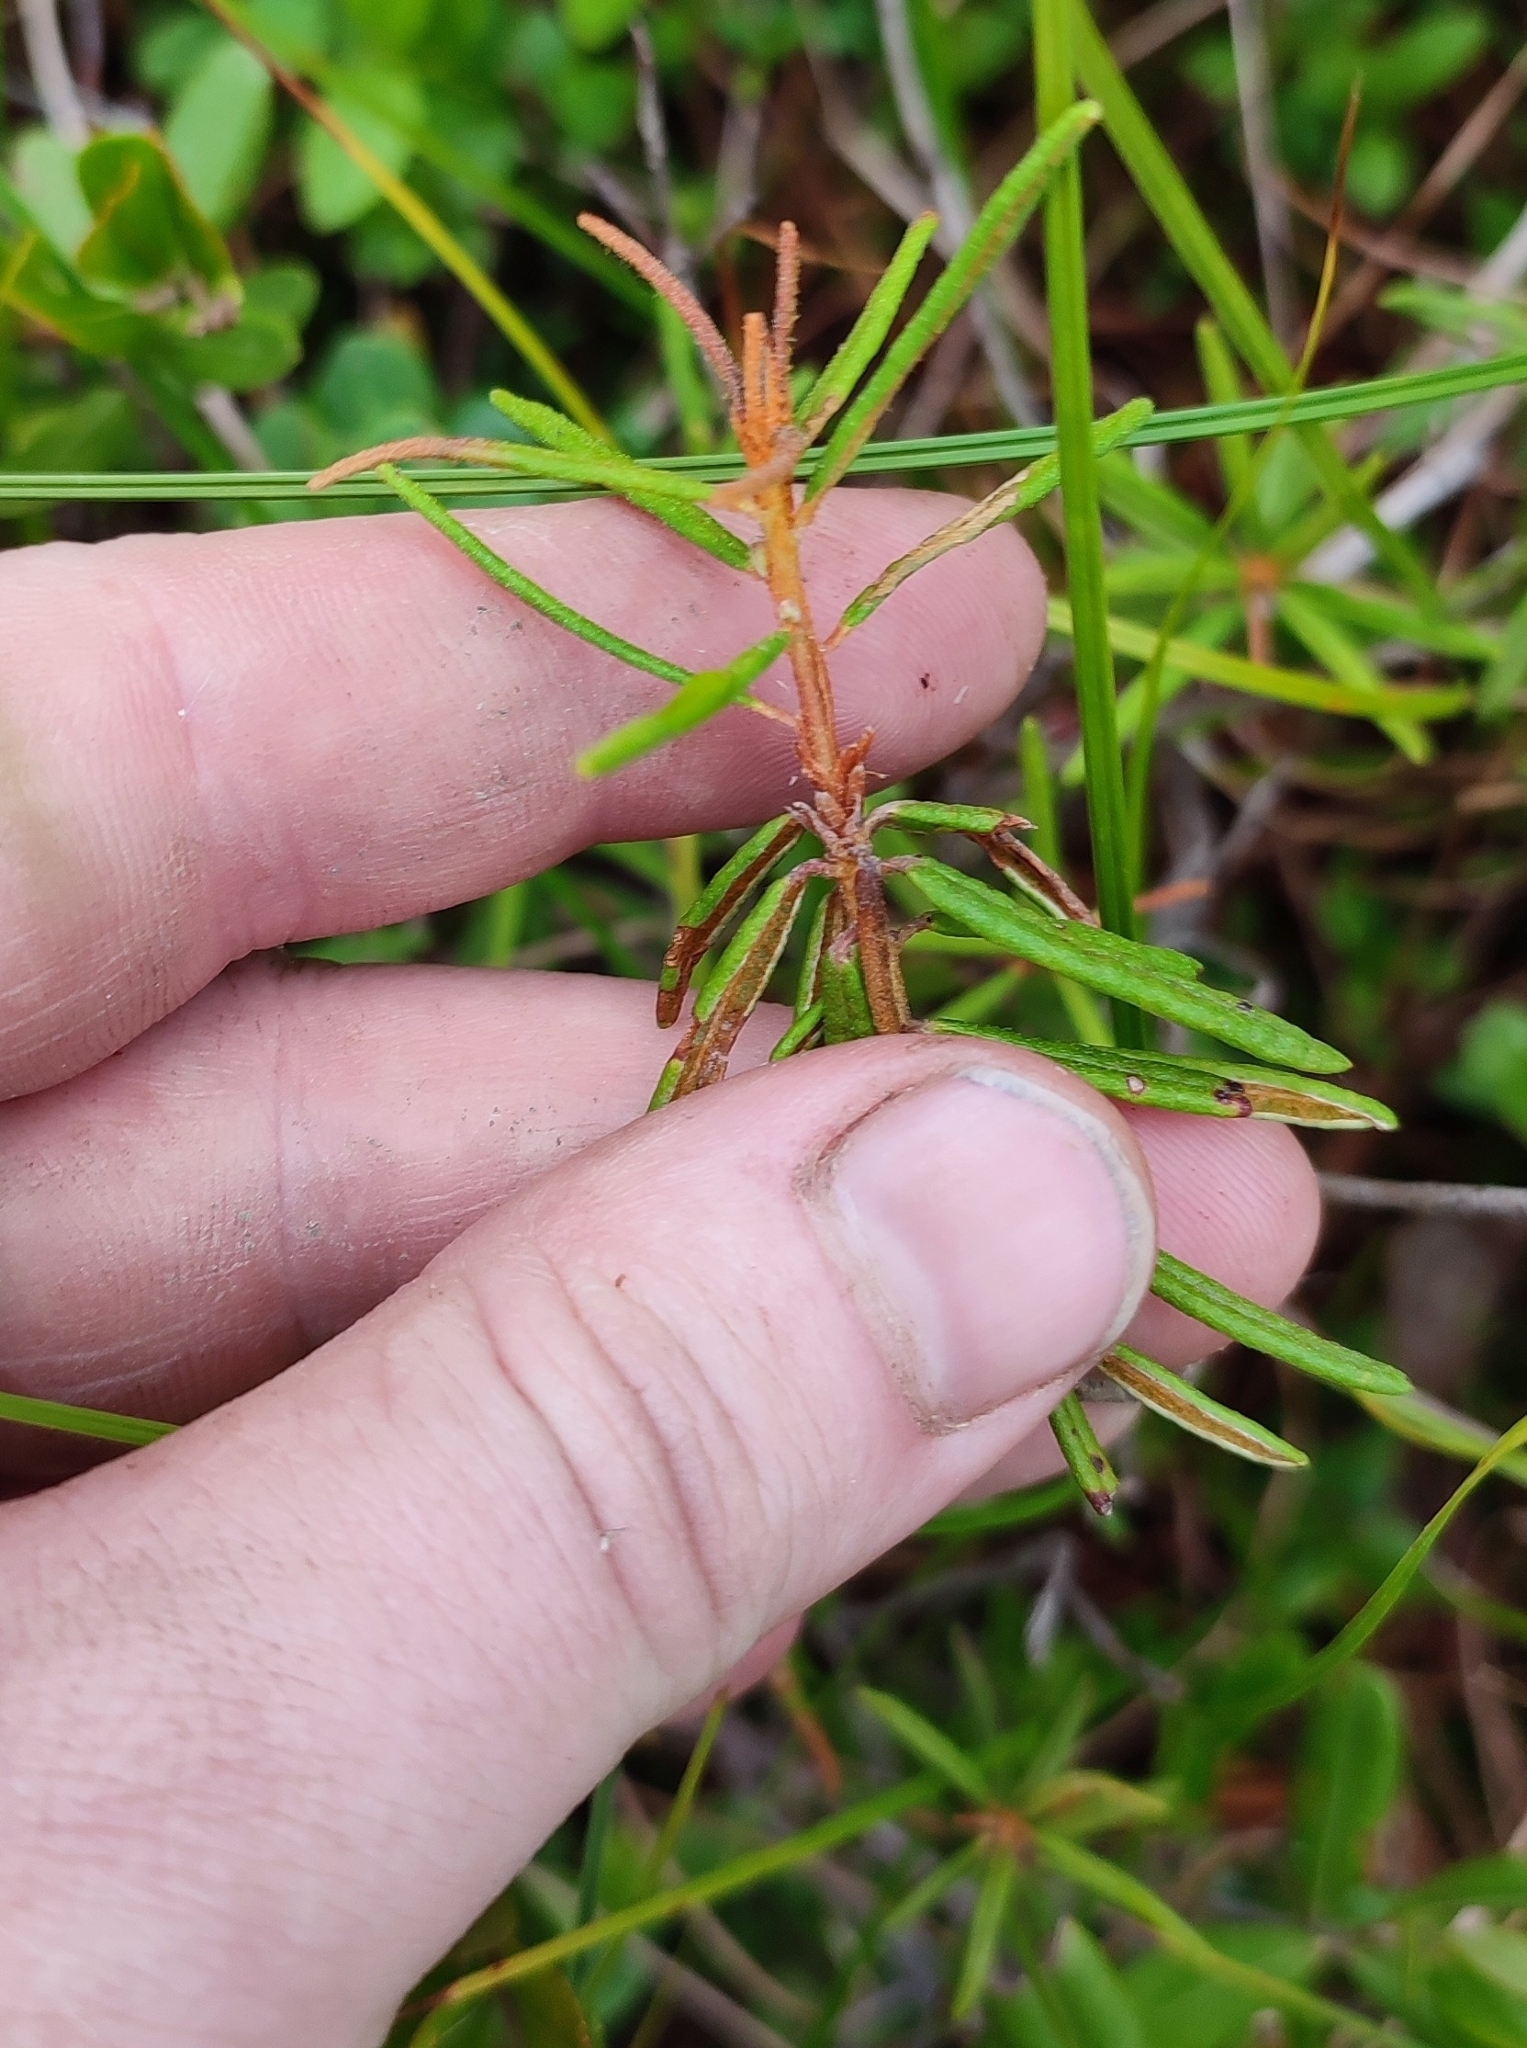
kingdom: Plantae
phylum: Tracheophyta
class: Magnoliopsida
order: Ericales
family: Ericaceae
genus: Rhododendron
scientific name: Rhododendron tomentosum
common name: Marsh labrador tea
